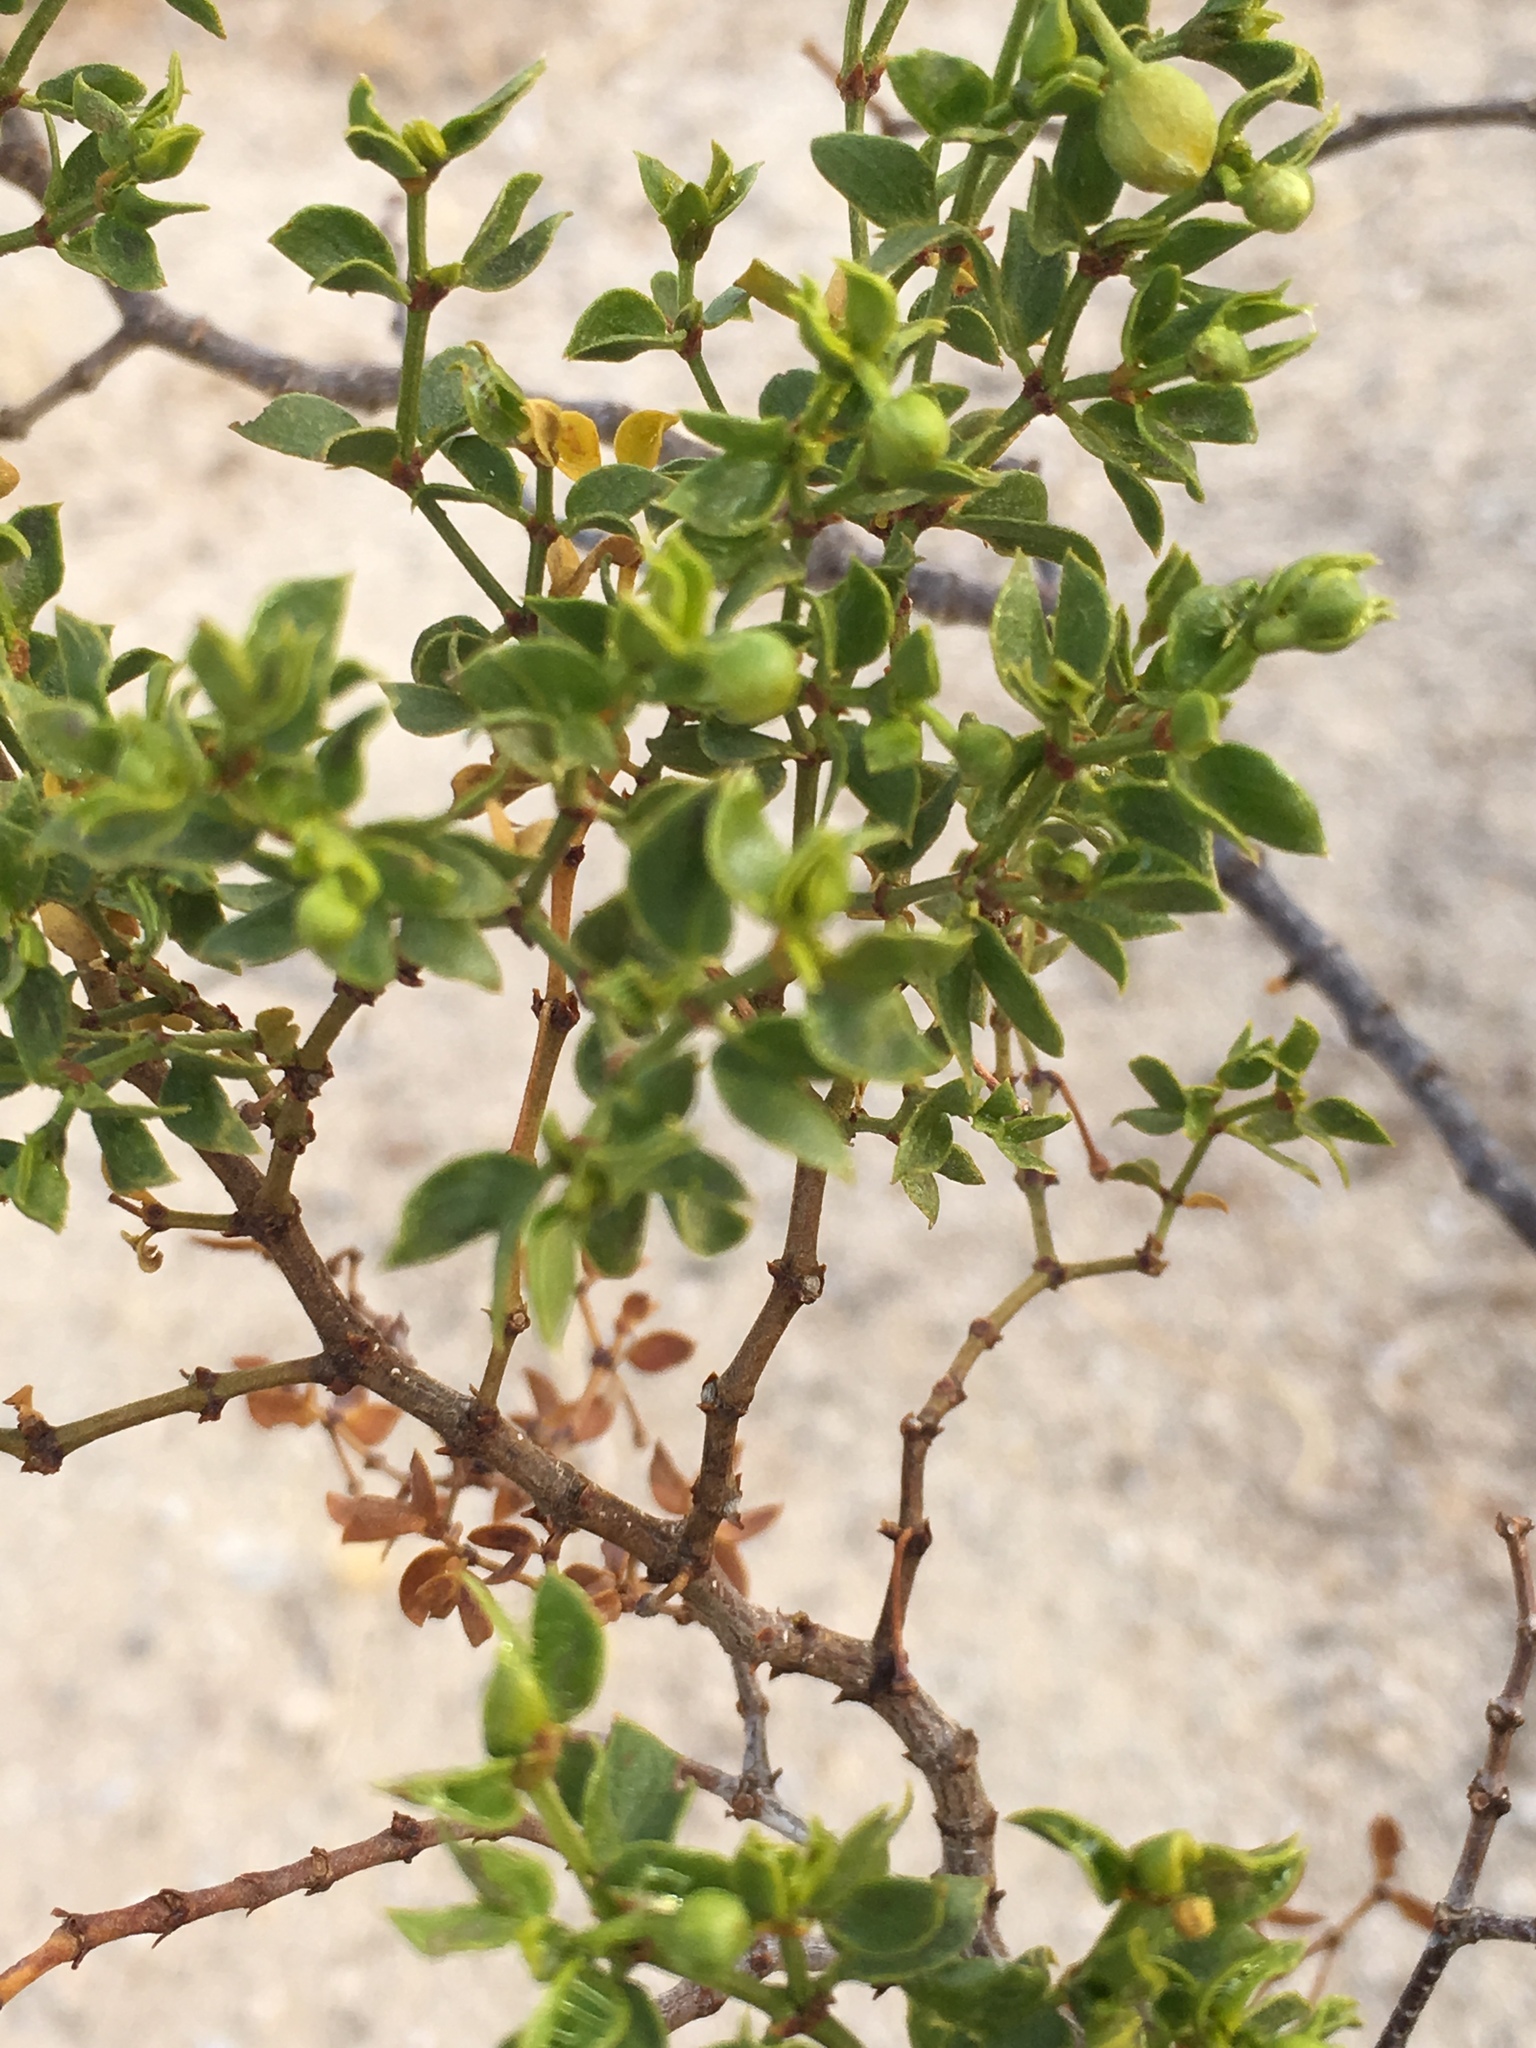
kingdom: Animalia
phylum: Arthropoda
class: Insecta
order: Diptera
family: Cecidomyiidae
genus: Asphondylia
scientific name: Asphondylia auripila
